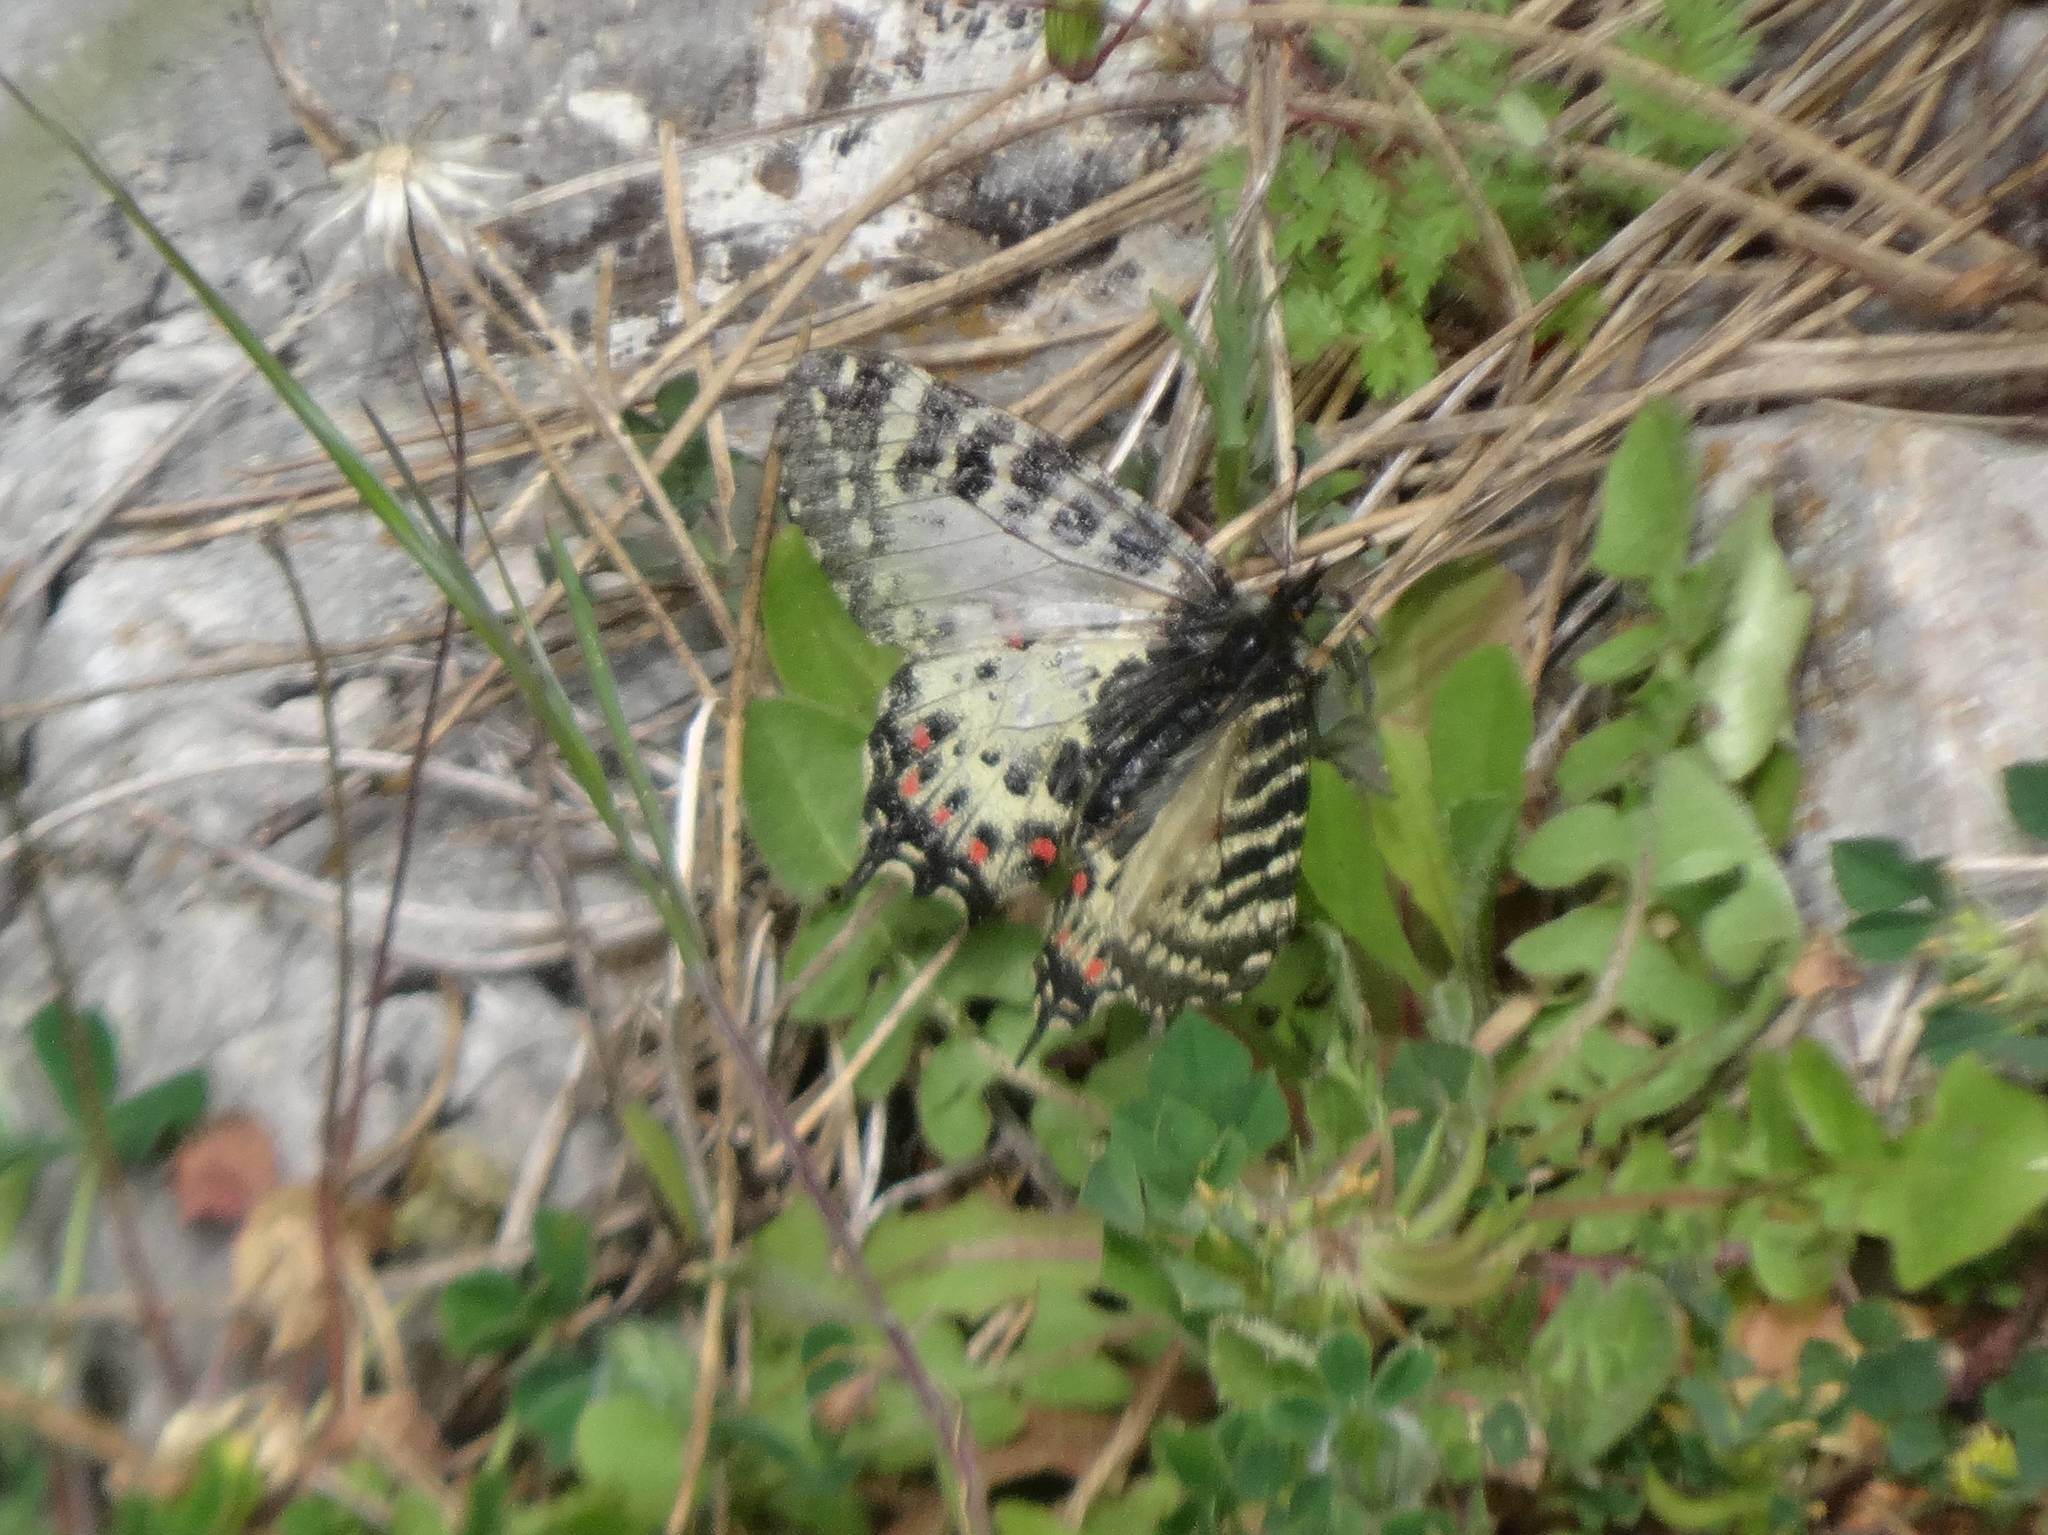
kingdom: Animalia
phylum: Arthropoda
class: Insecta
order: Lepidoptera
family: Papilionidae
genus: Zerynthia
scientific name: Zerynthia cerisy
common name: Eastern festoon
